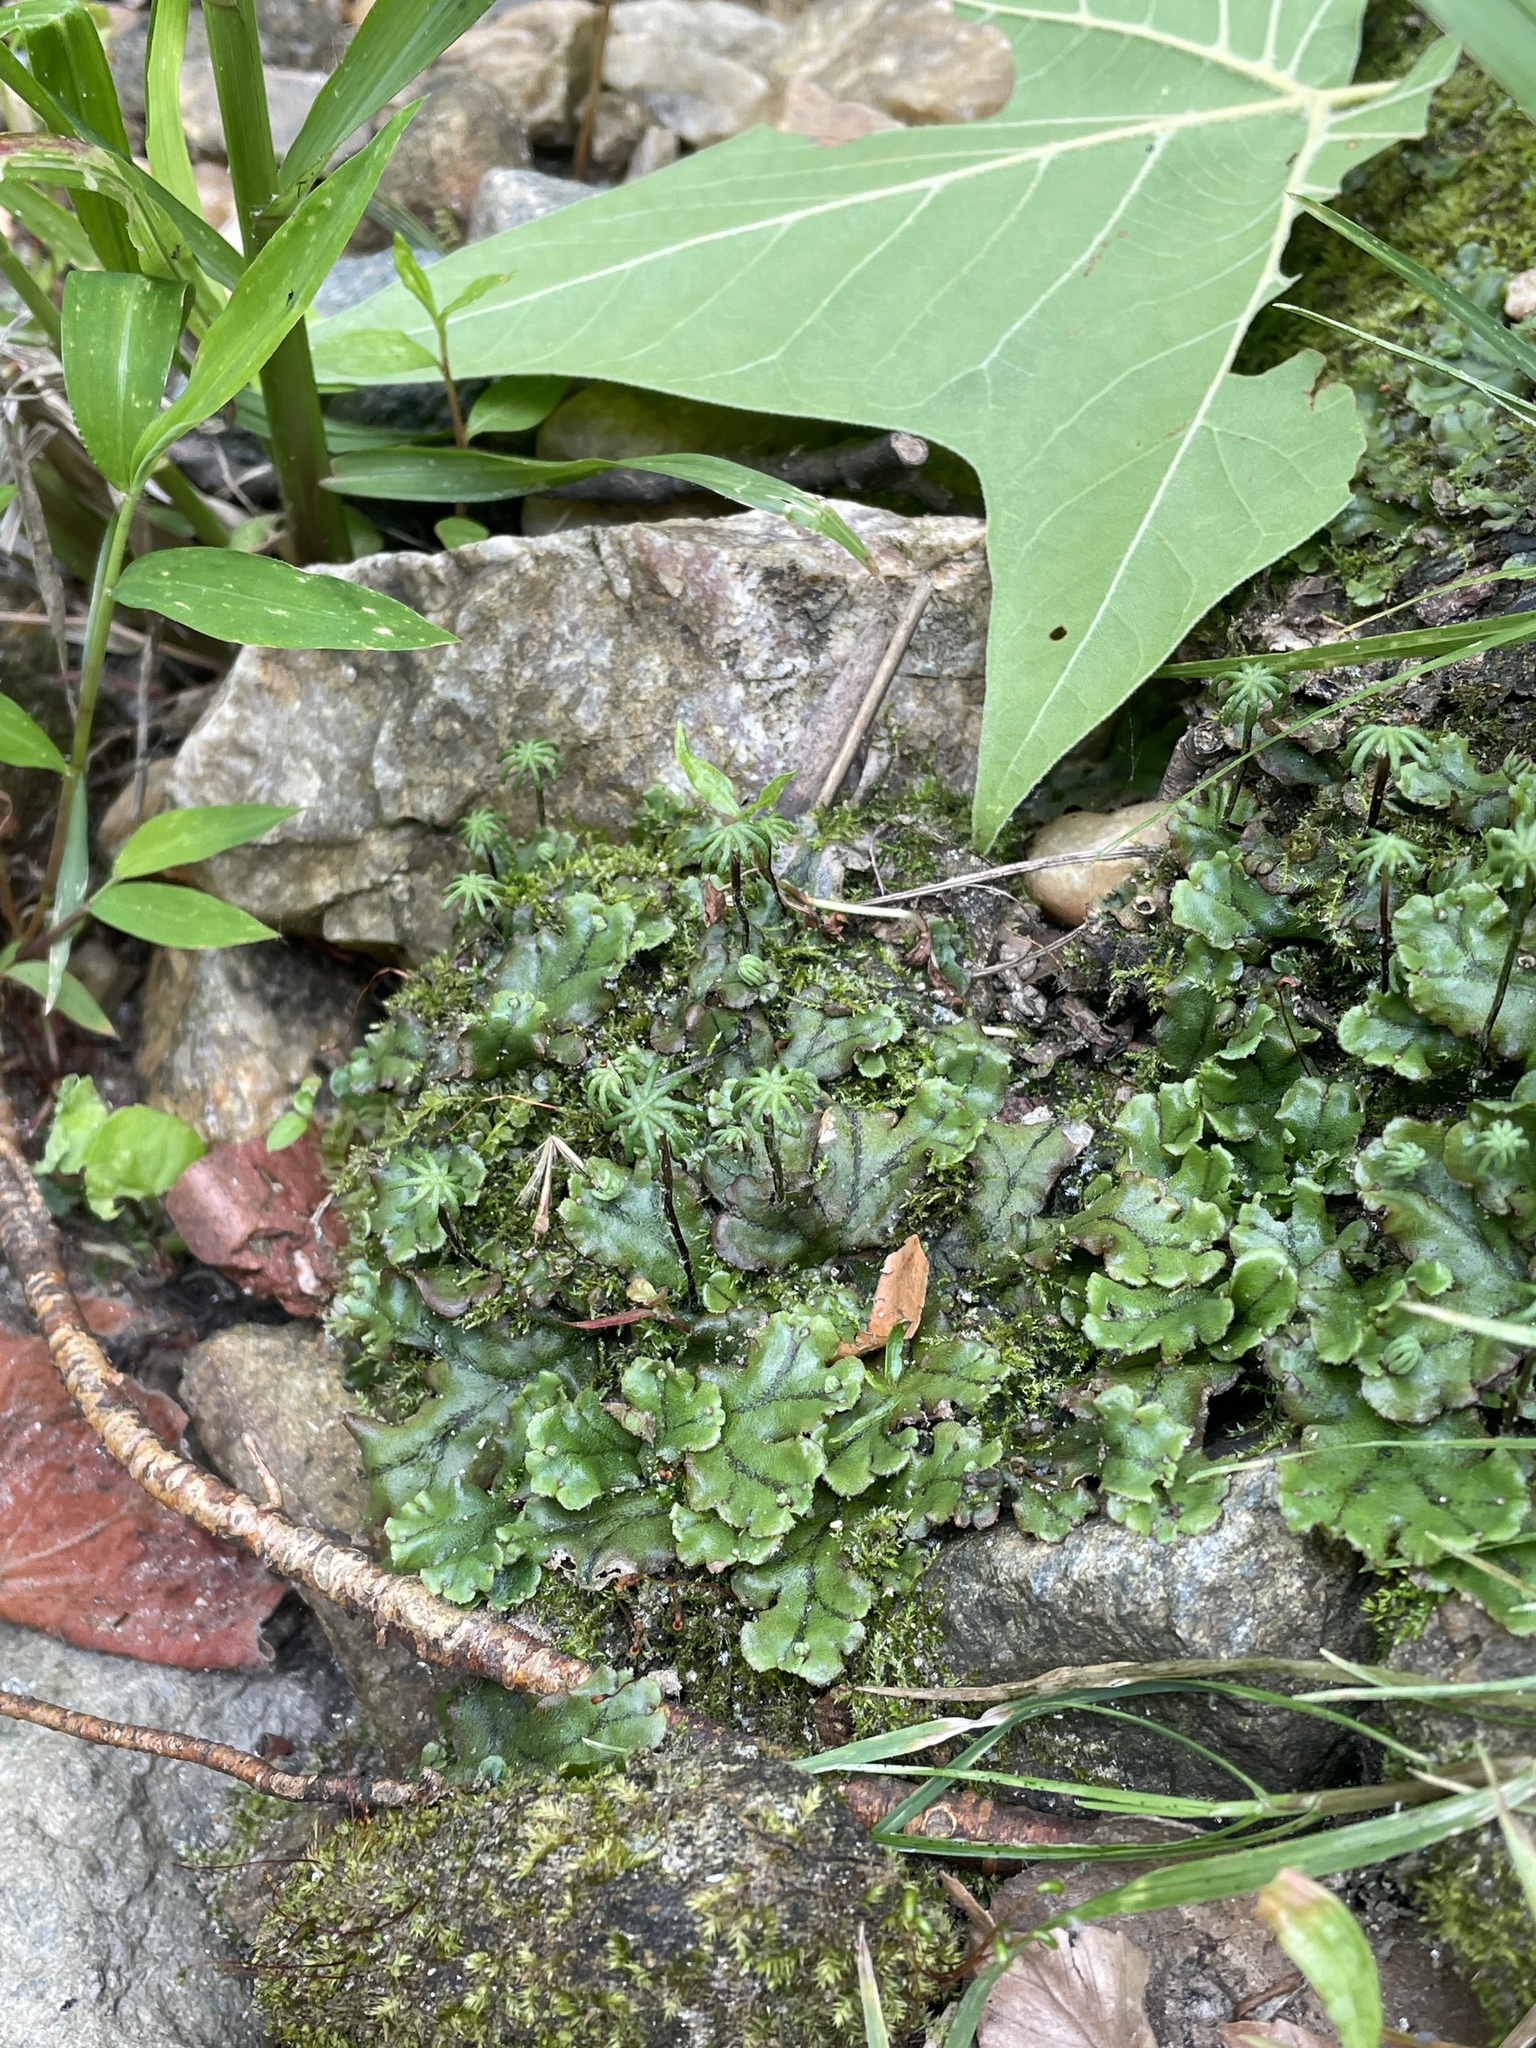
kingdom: Plantae
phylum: Marchantiophyta
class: Marchantiopsida
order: Marchantiales
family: Marchantiaceae
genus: Marchantia
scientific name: Marchantia polymorpha
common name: Common liverwort
